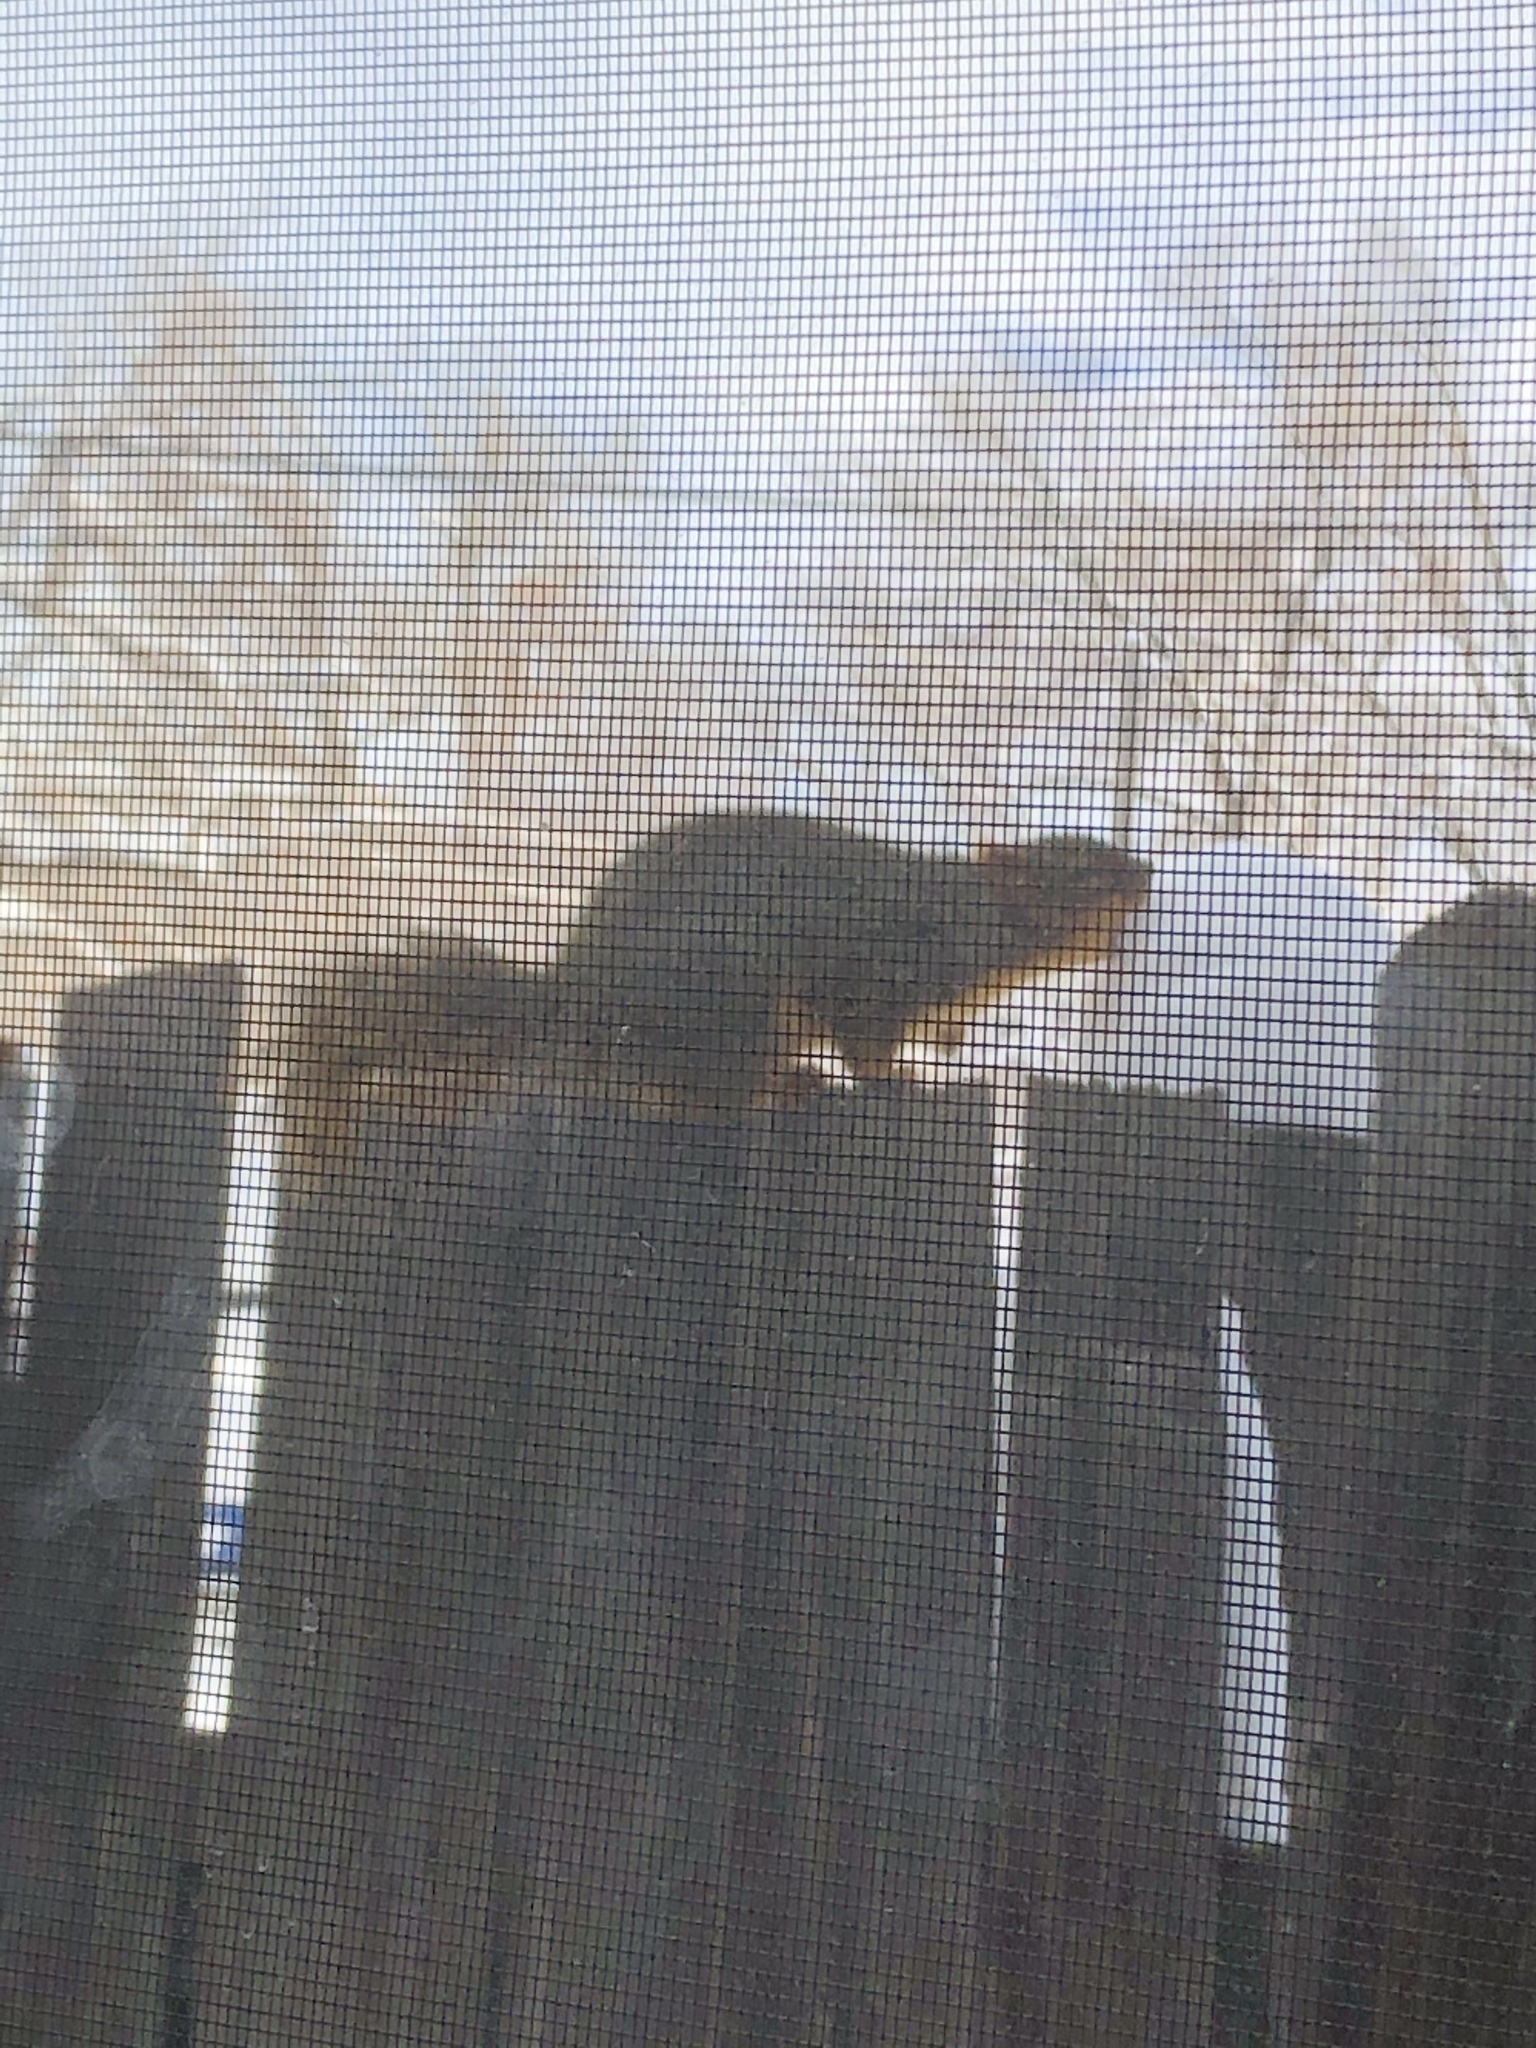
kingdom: Animalia
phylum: Chordata
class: Mammalia
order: Rodentia
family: Sciuridae
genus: Sciurus
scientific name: Sciurus niger
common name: Fox squirrel
